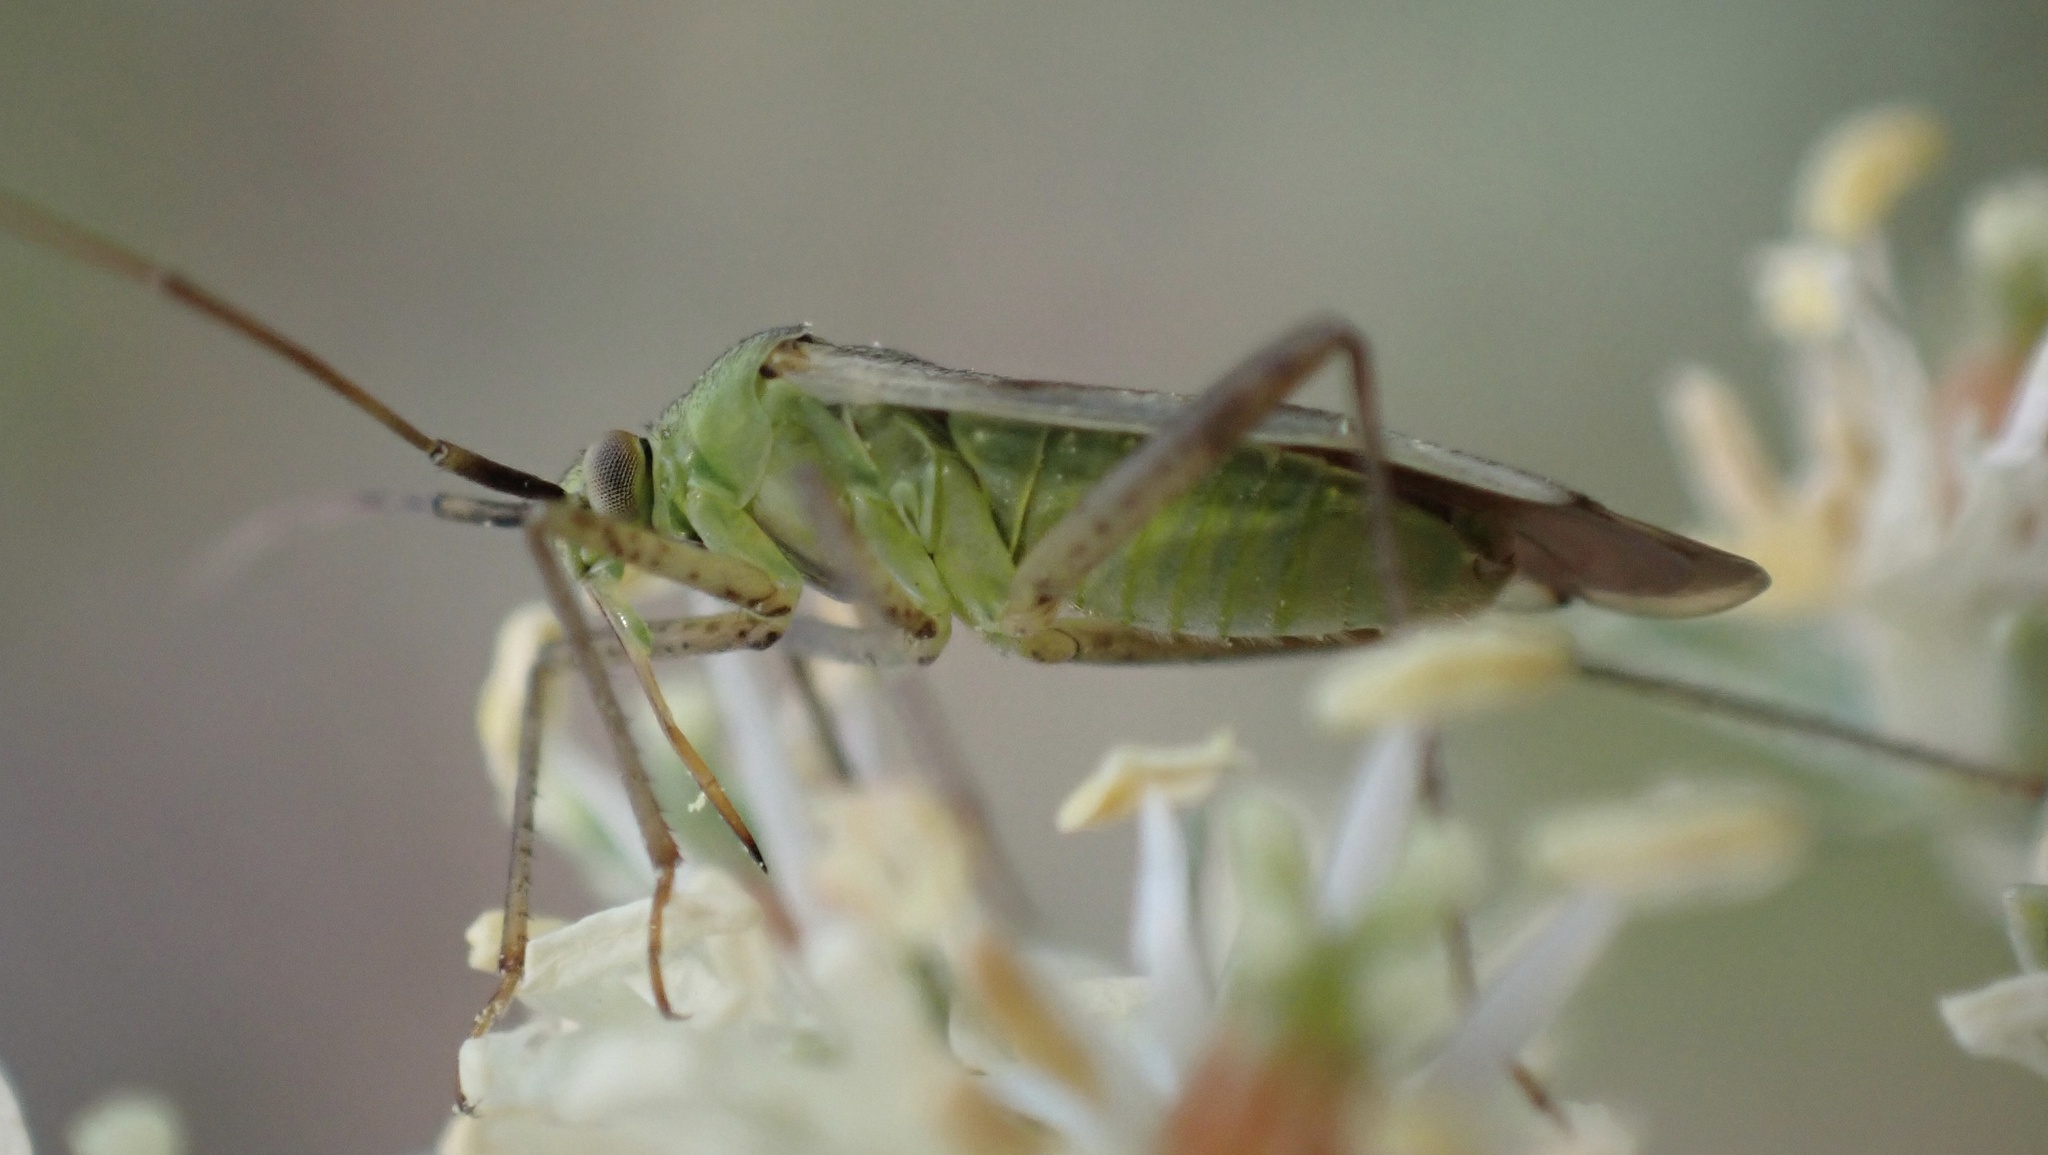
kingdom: Animalia
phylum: Arthropoda
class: Insecta
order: Hemiptera
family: Miridae
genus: Reuterista
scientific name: Reuterista instabilis
